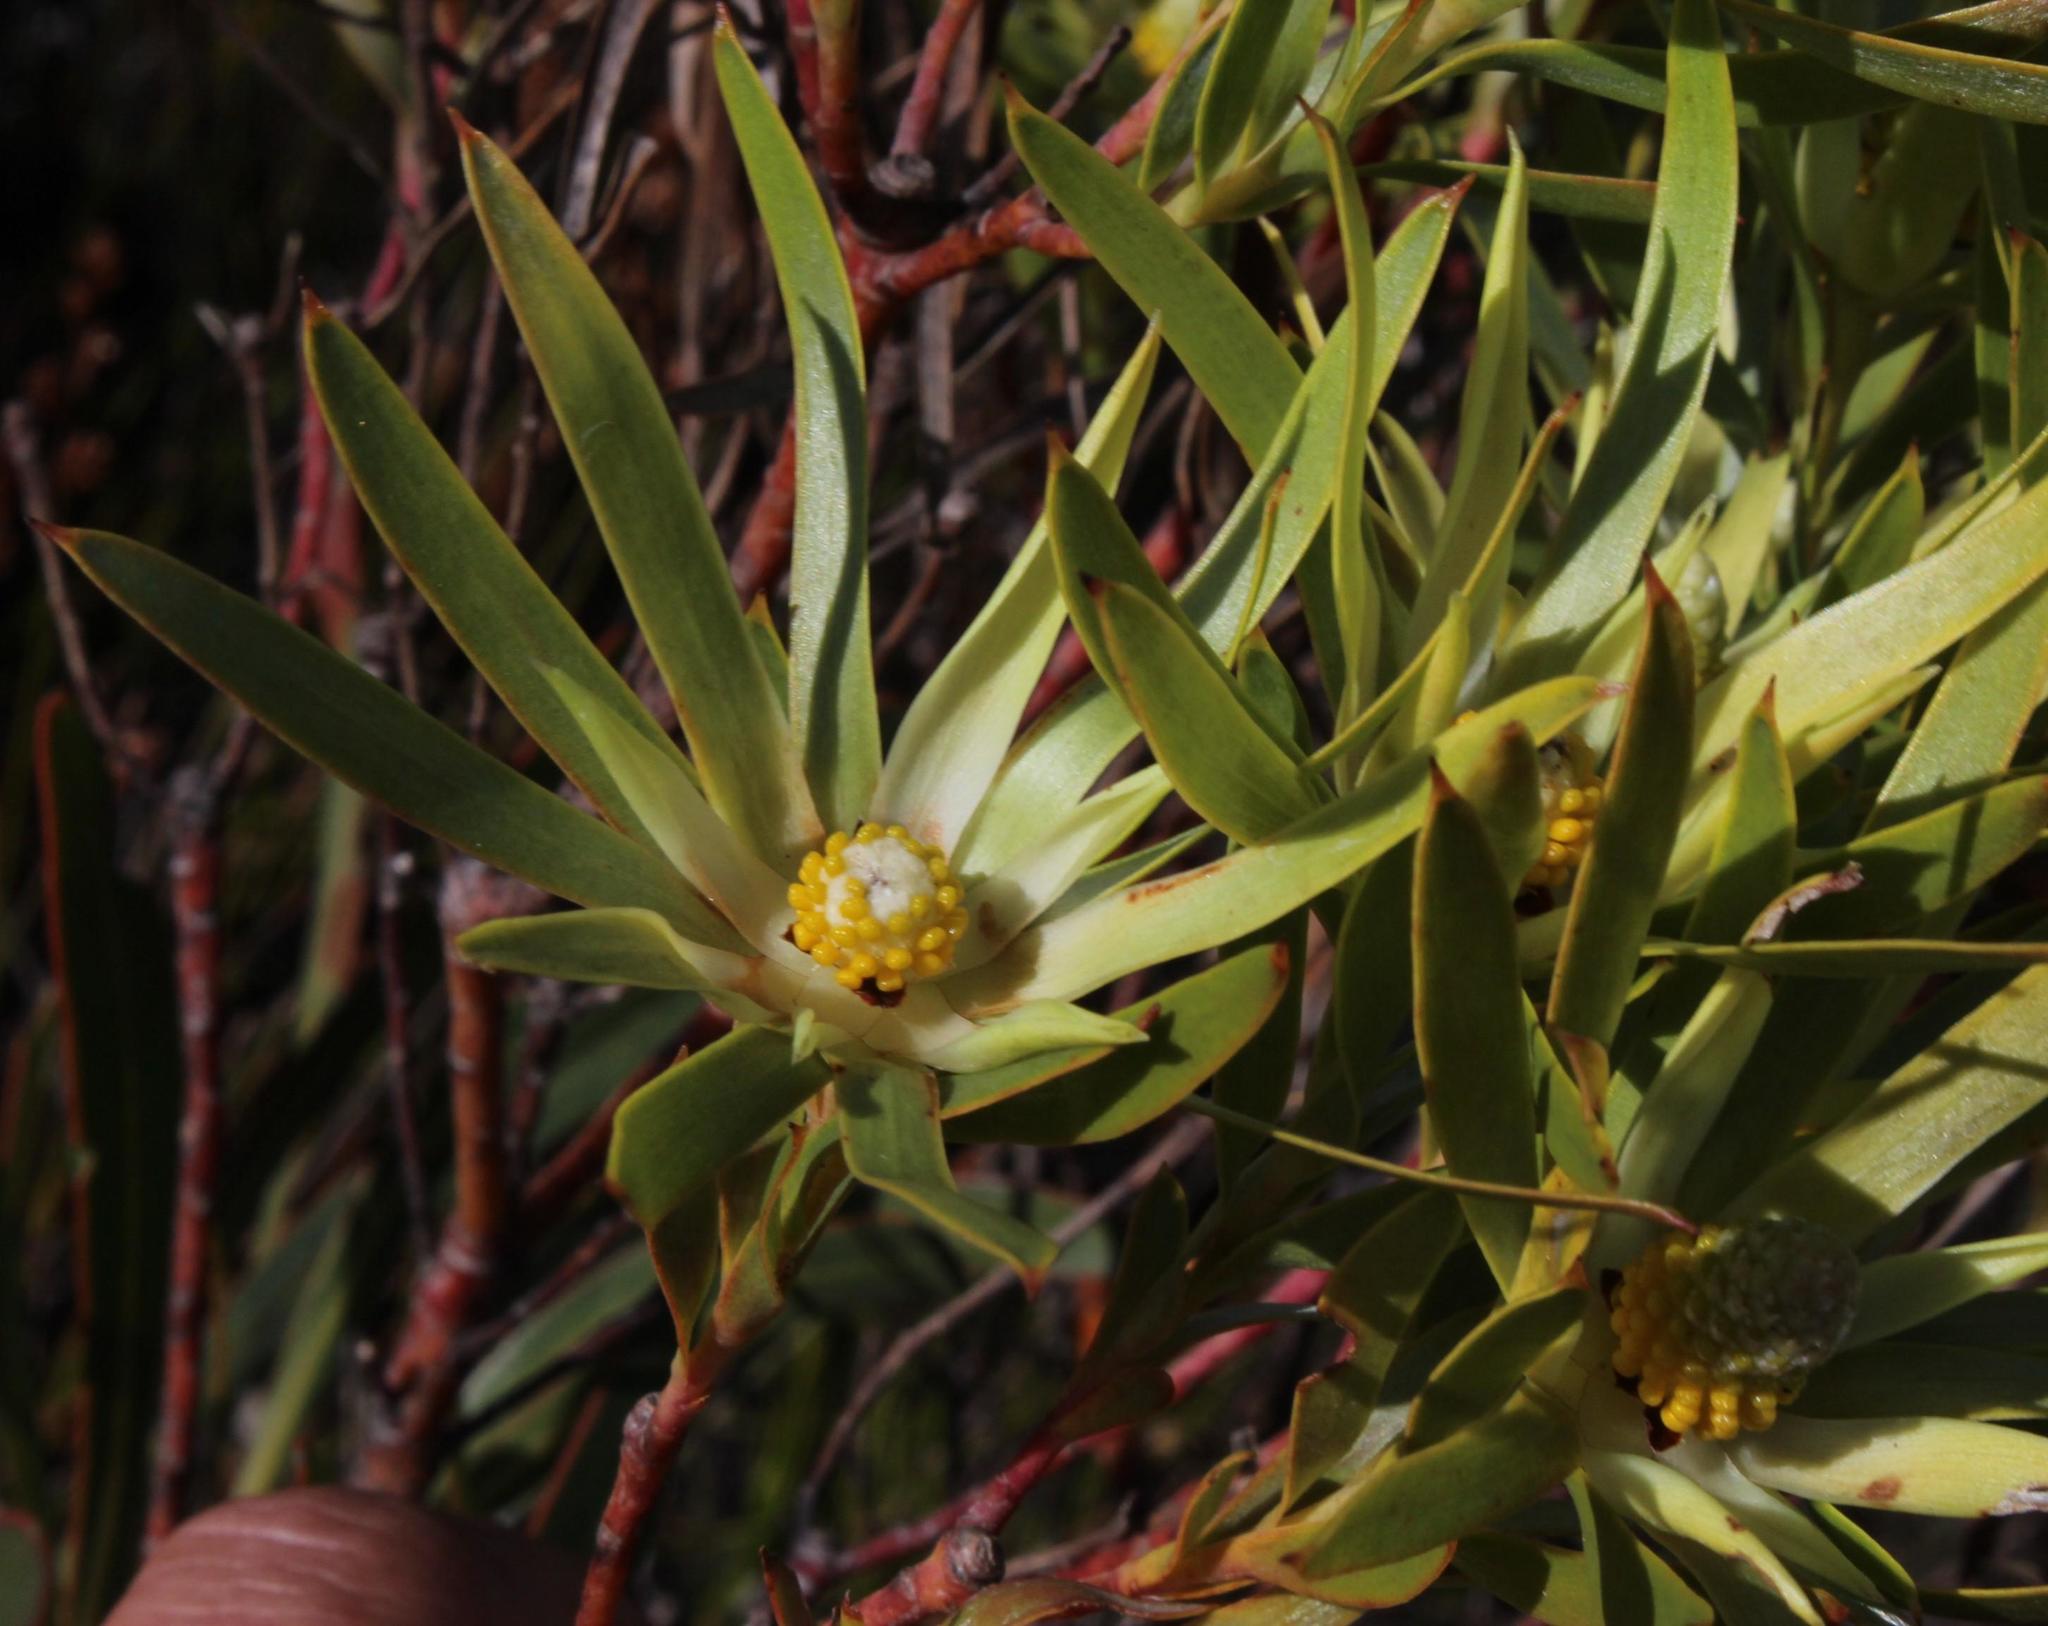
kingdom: Plantae
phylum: Tracheophyta
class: Magnoliopsida
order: Proteales
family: Proteaceae
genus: Leucadendron
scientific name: Leucadendron xanthoconus
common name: Sickle-leaf conebush
